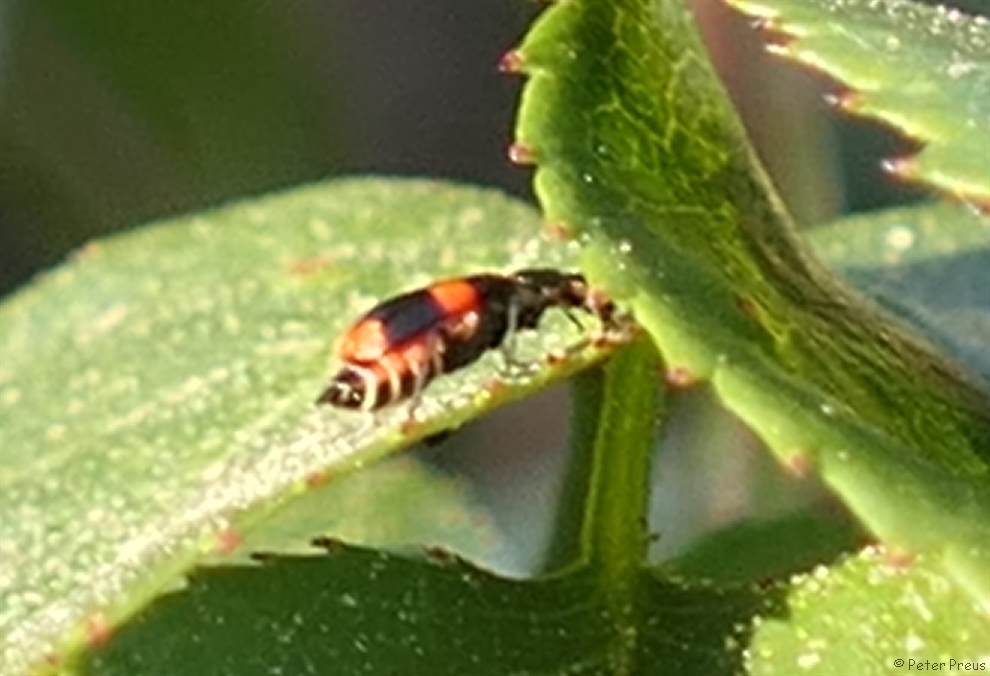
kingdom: Animalia
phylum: Arthropoda
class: Insecta
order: Coleoptera
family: Melyridae
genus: Anthocomus
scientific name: Anthocomus fasciatus
